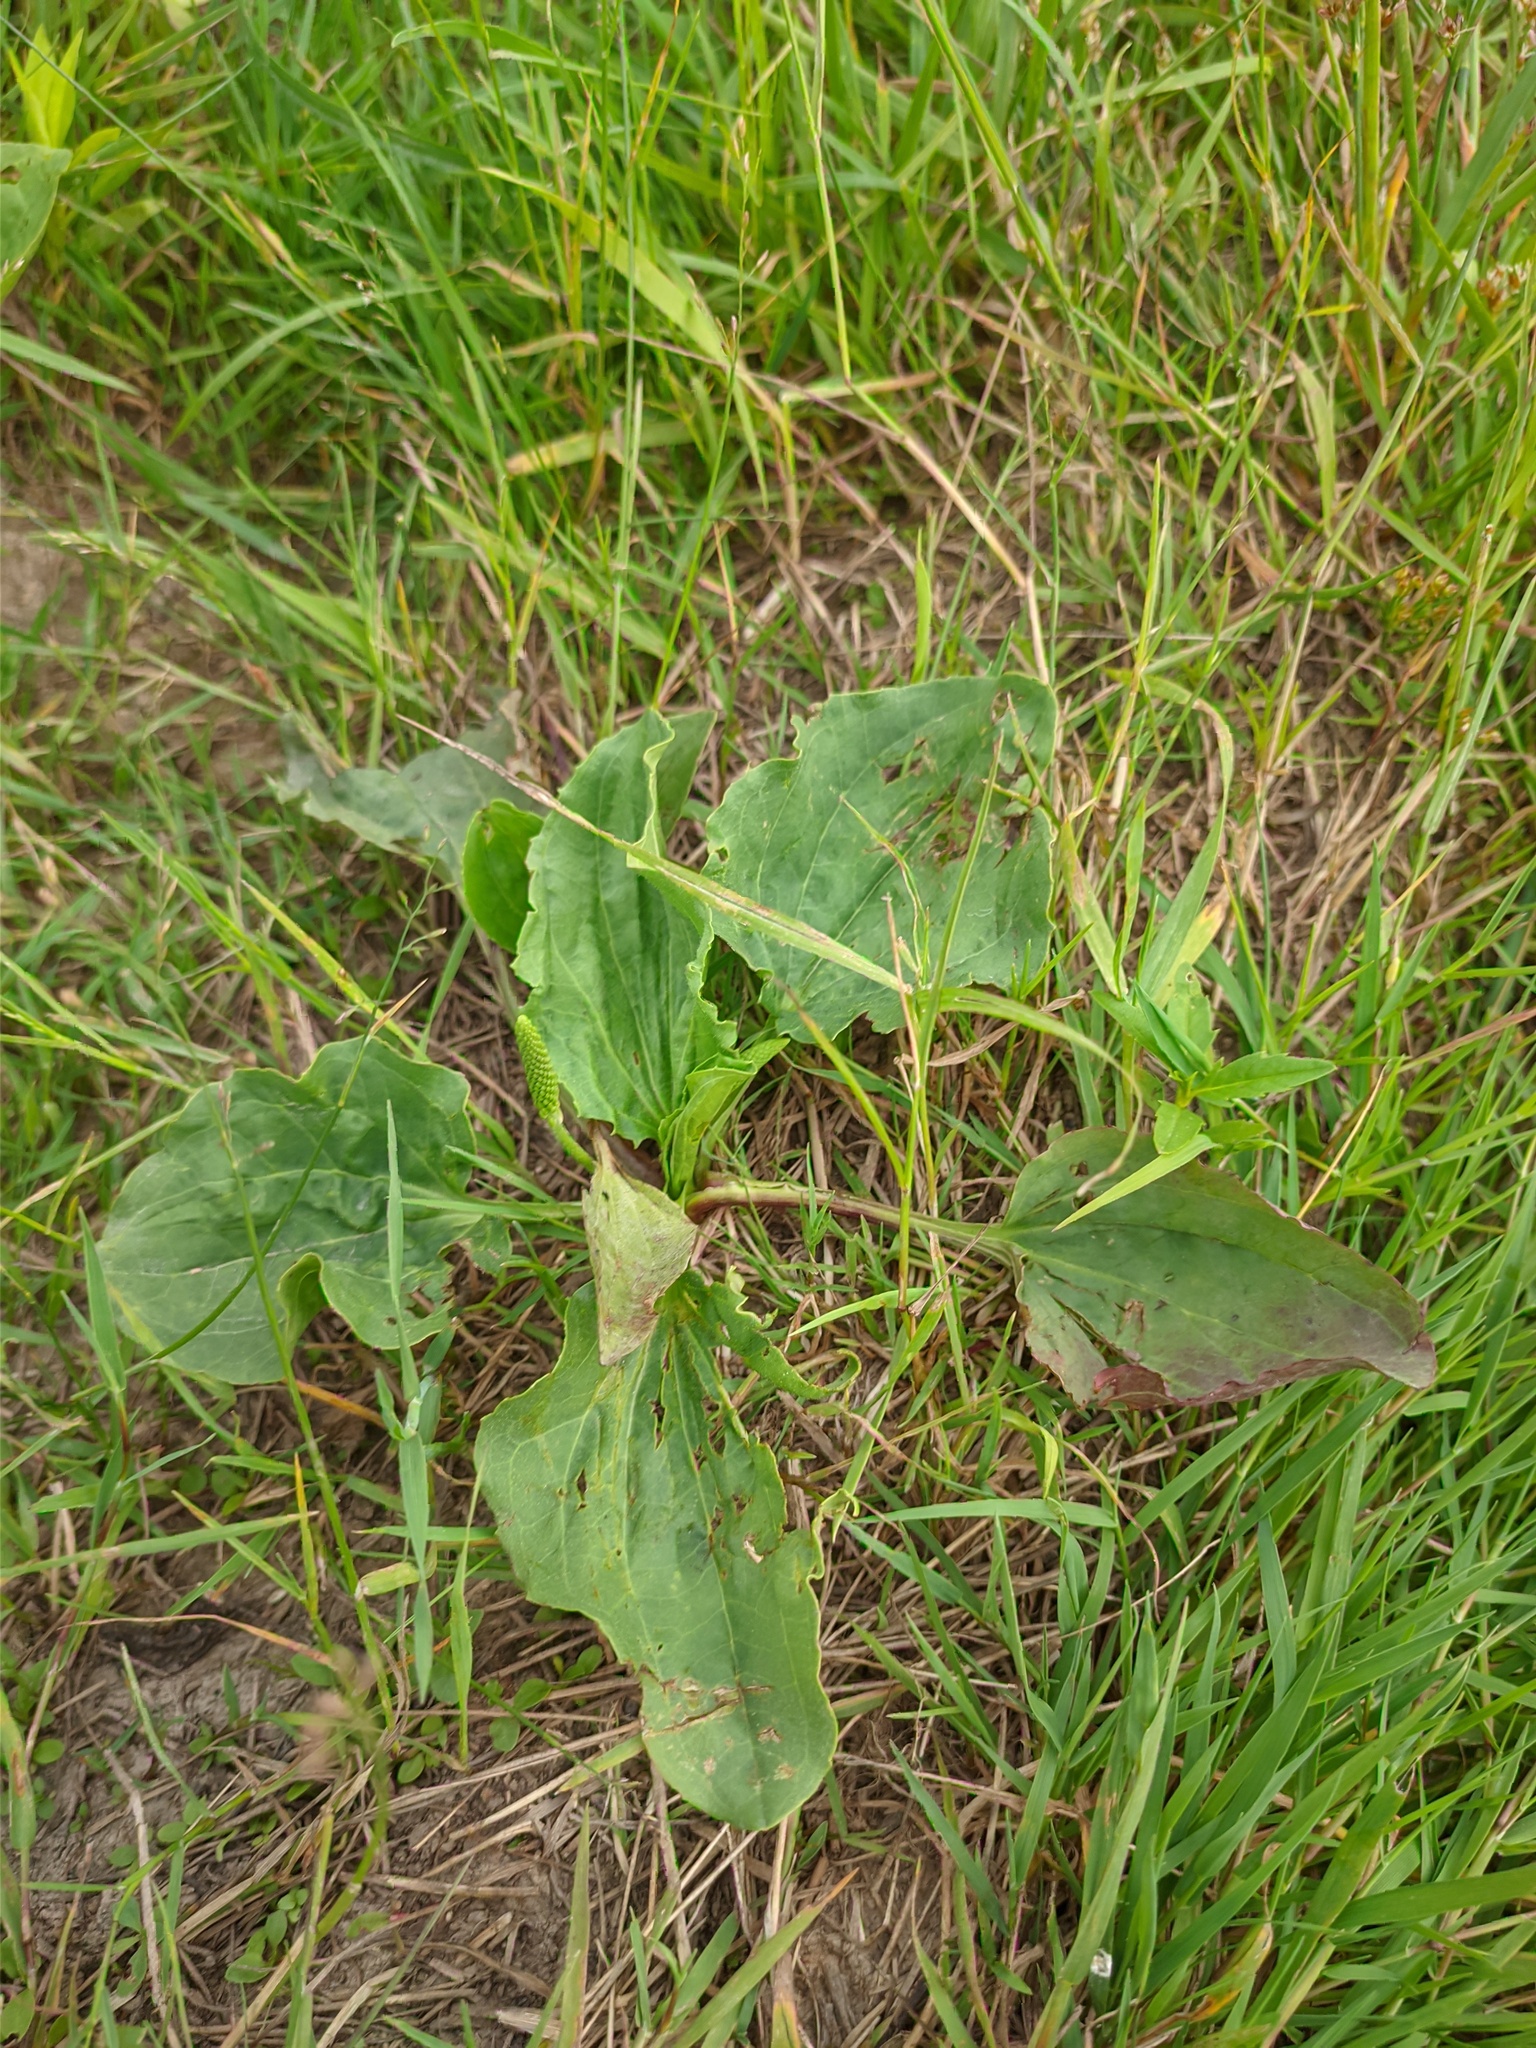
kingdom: Plantae
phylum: Tracheophyta
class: Magnoliopsida
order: Lamiales
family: Plantaginaceae
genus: Plantago
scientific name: Plantago major
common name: Common plantain
